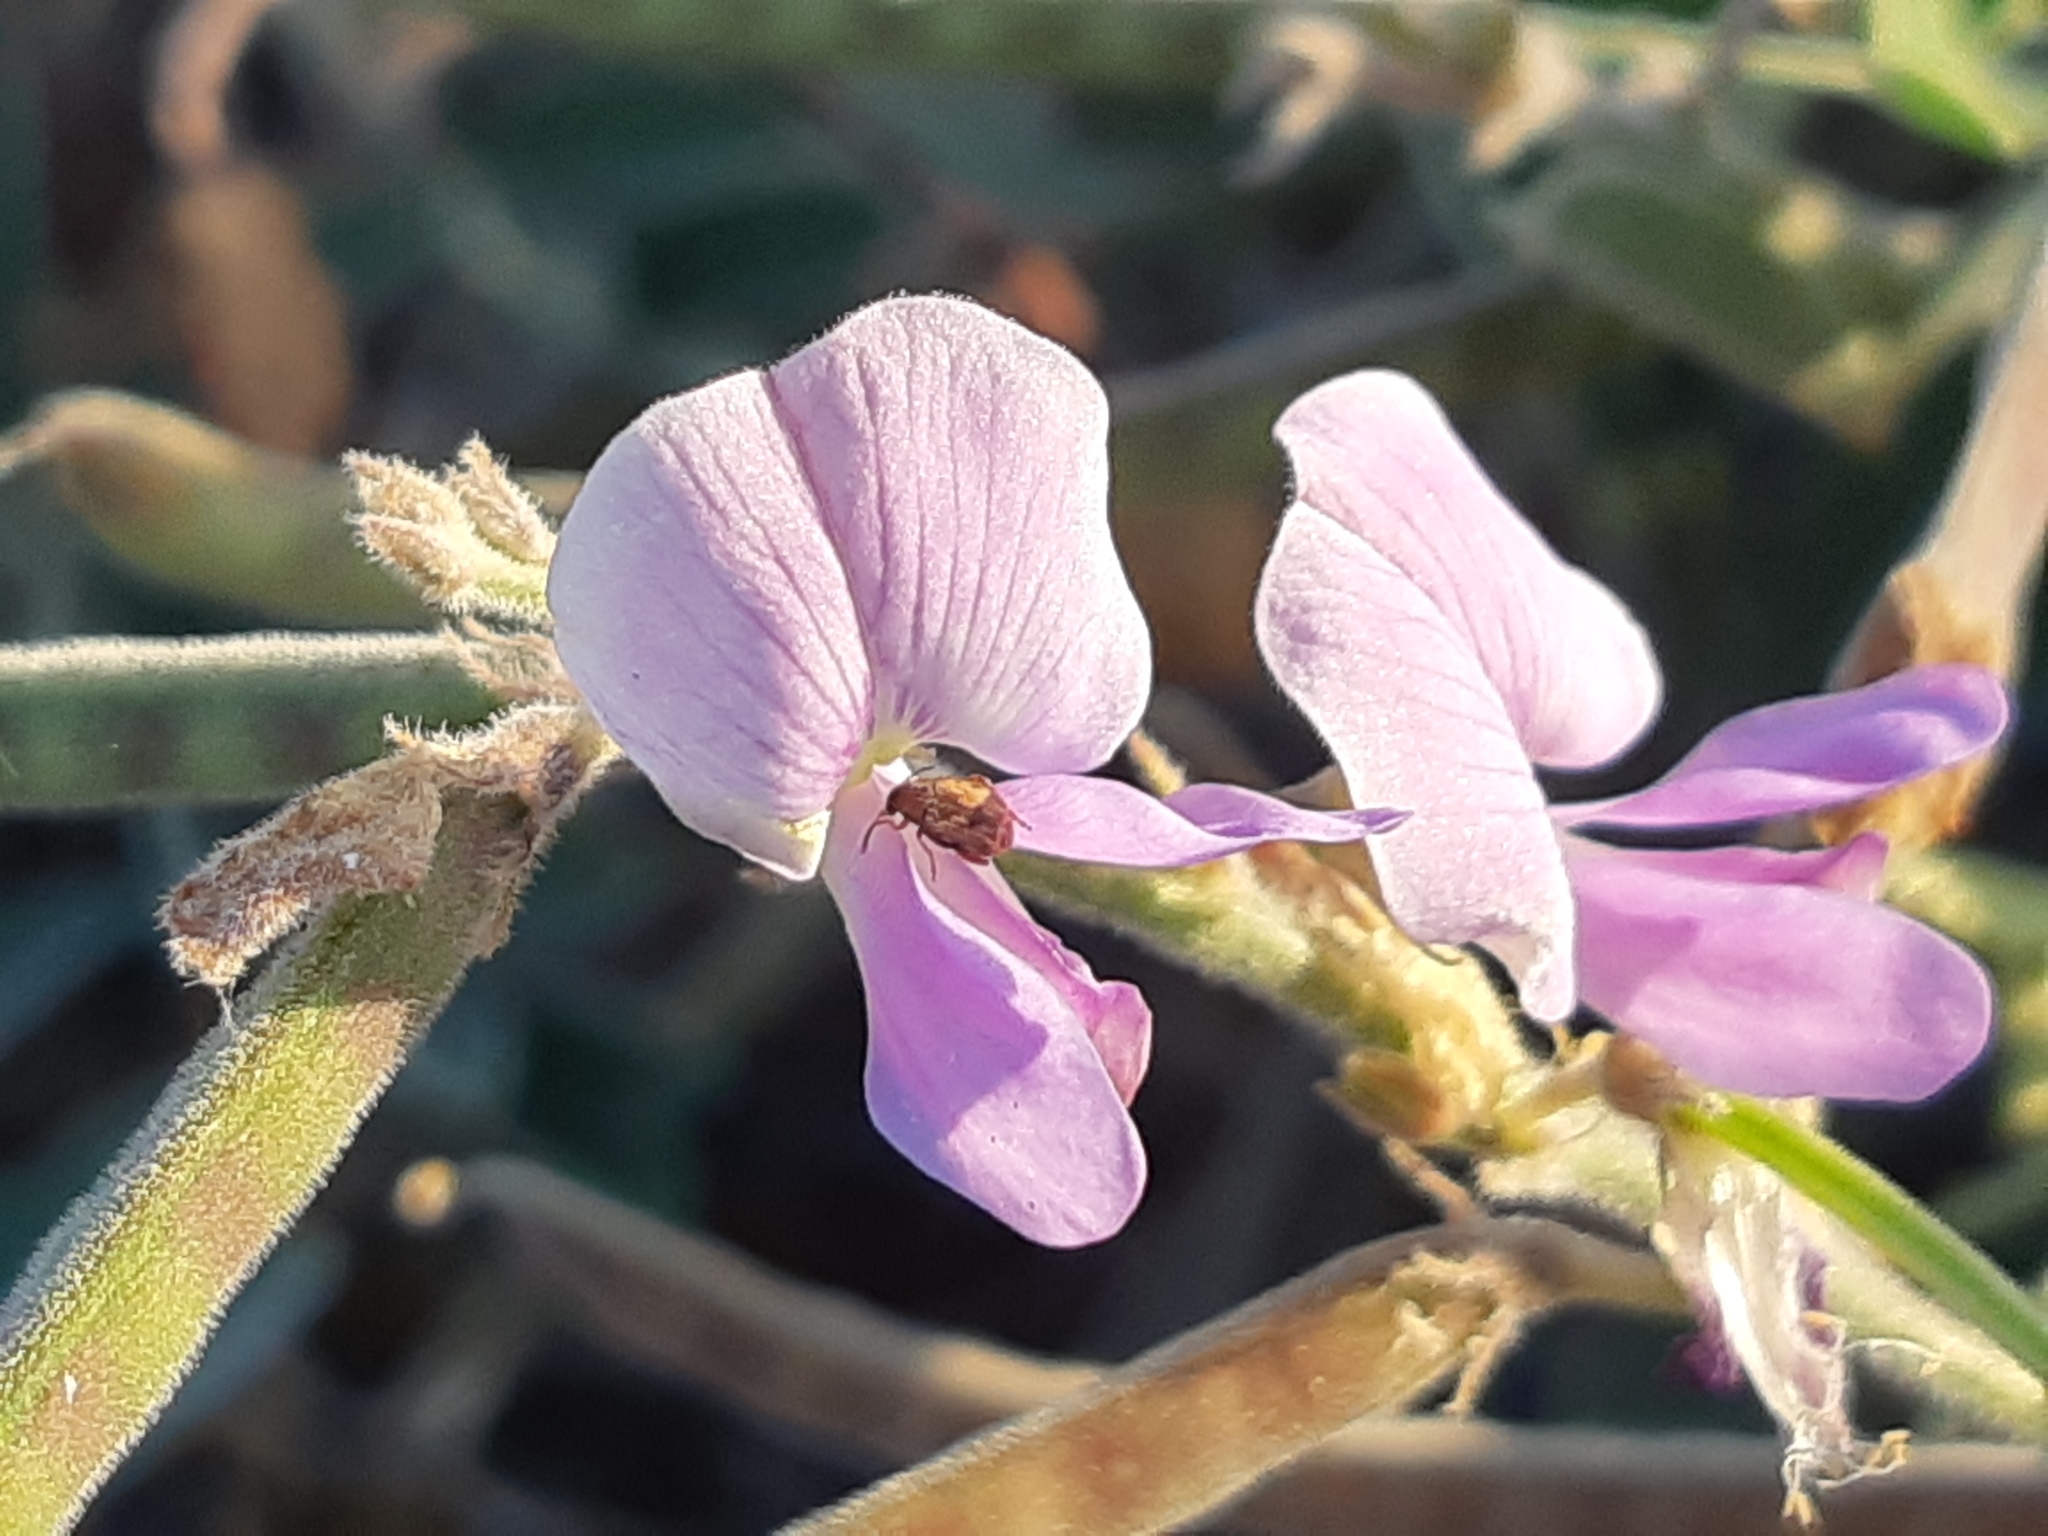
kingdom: Plantae
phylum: Tracheophyta
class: Magnoliopsida
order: Fabales
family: Fabaceae
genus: Coursetia
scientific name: Coursetia tumbezensis
